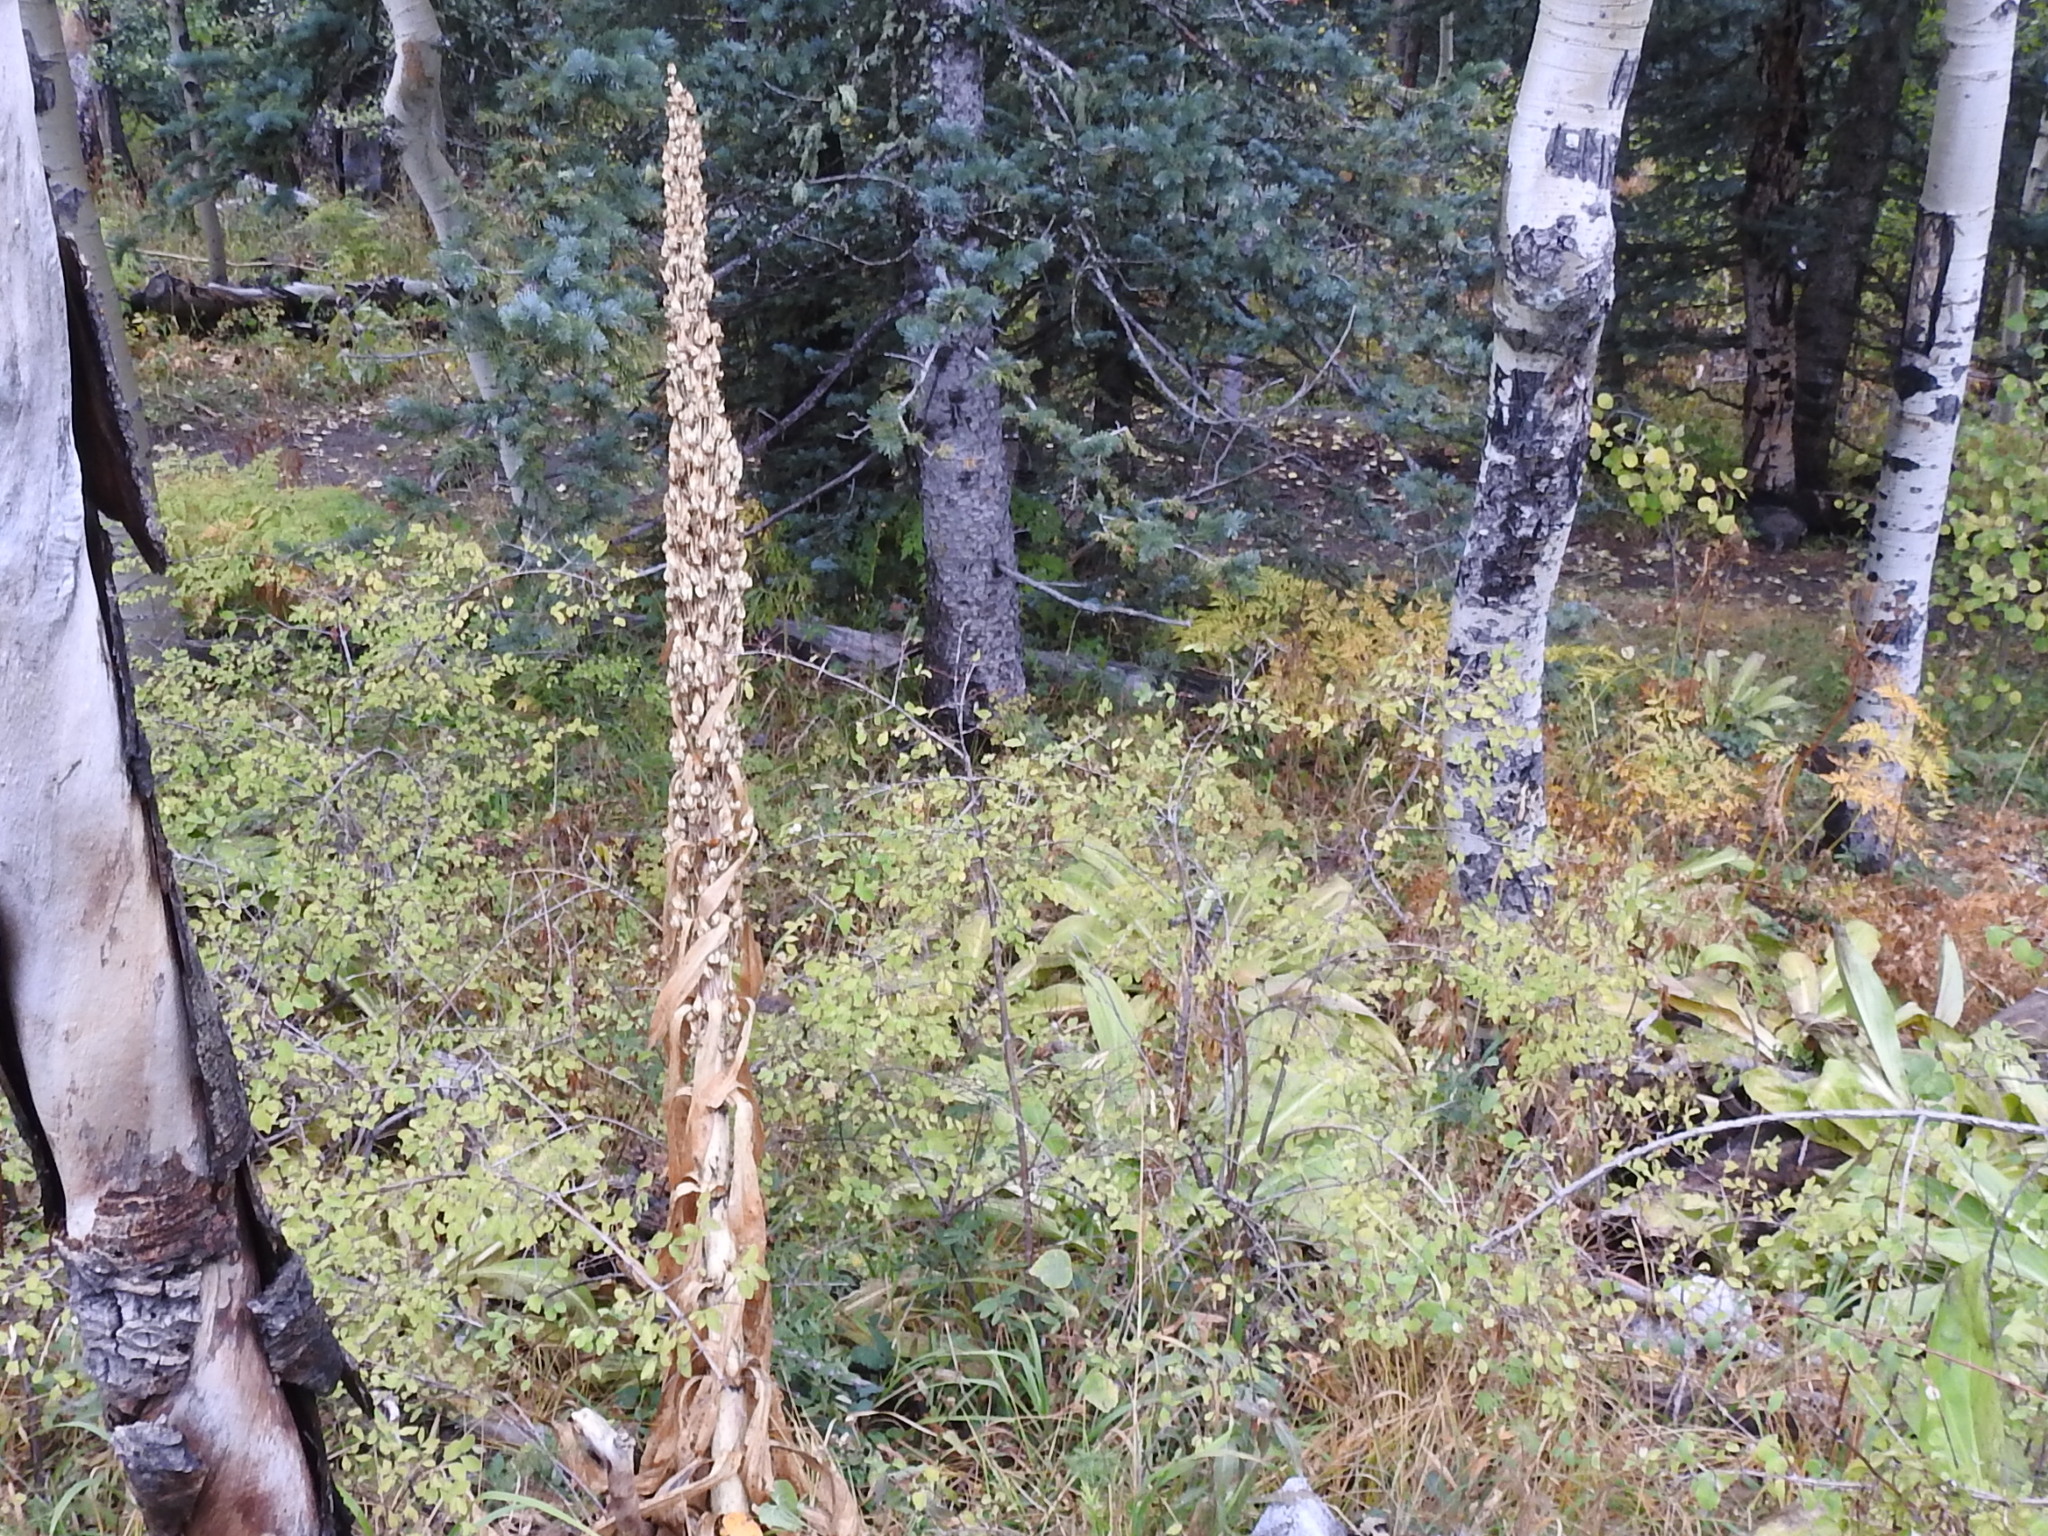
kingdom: Plantae
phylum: Tracheophyta
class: Magnoliopsida
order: Gentianales
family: Gentianaceae
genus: Frasera
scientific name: Frasera speciosa
